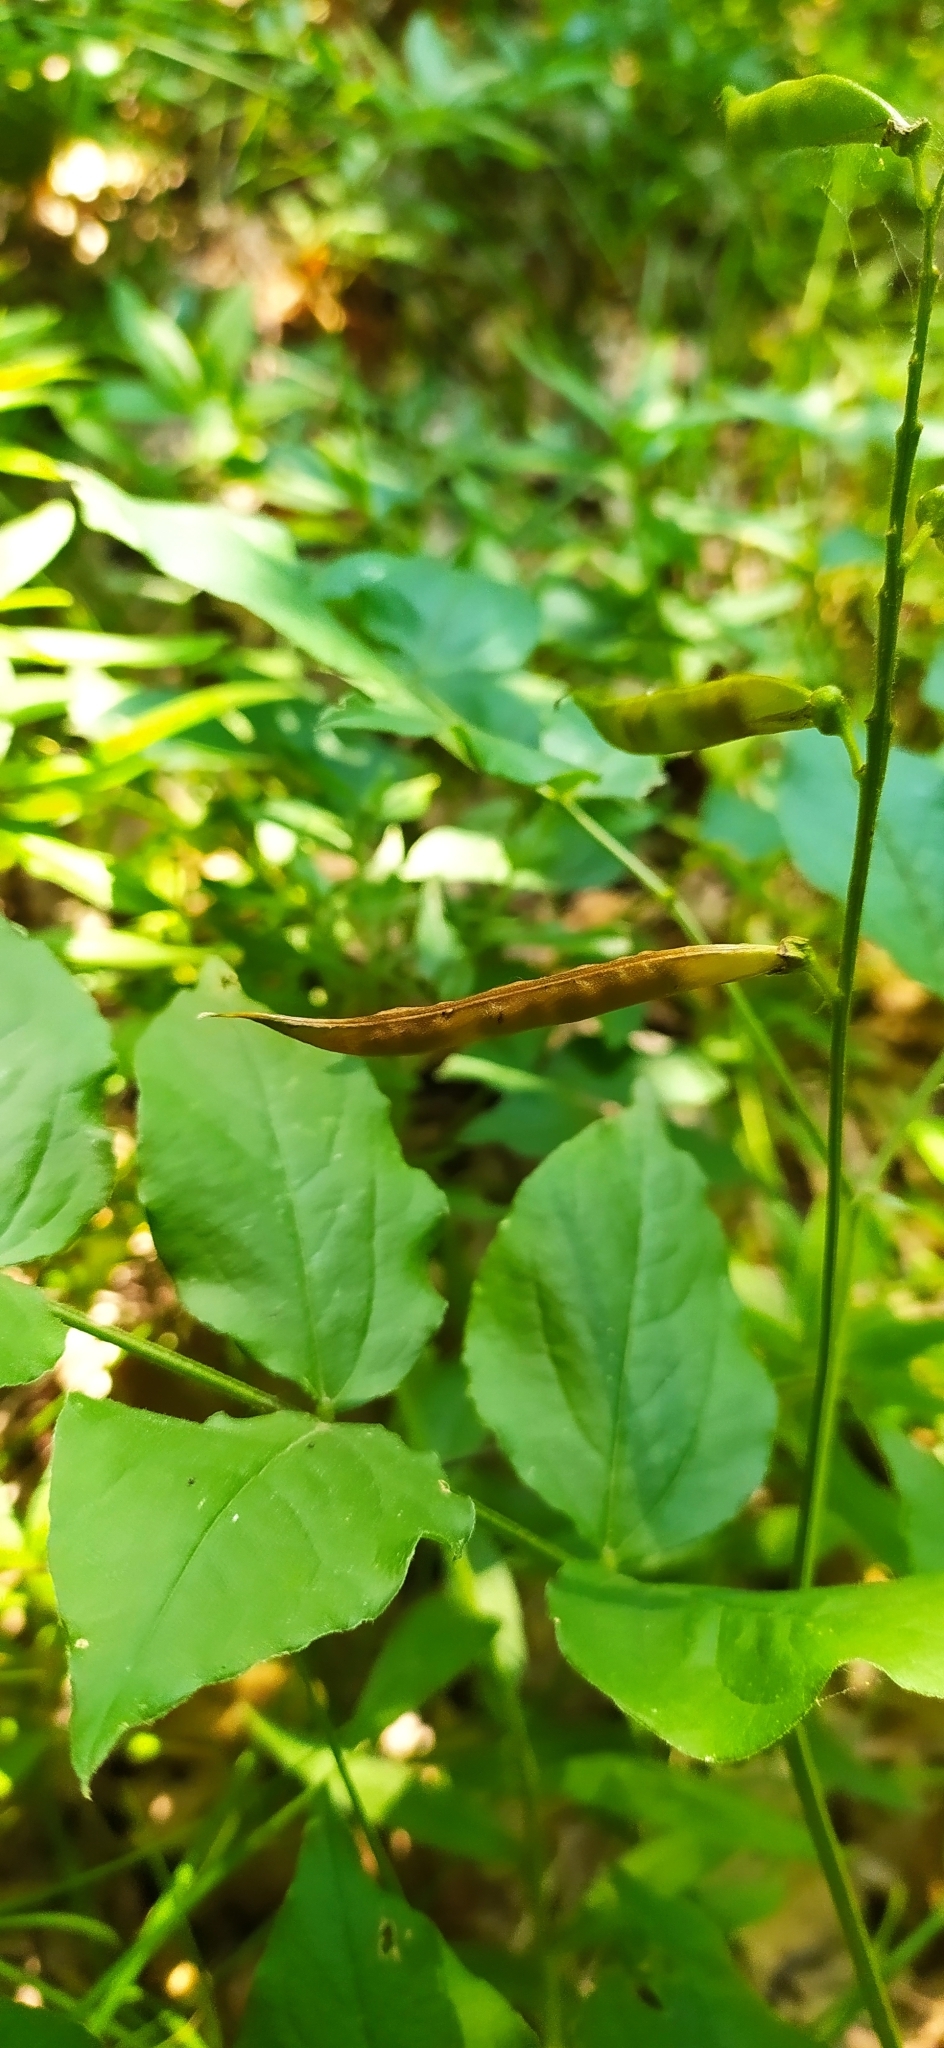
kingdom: Plantae
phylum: Tracheophyta
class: Magnoliopsida
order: Fabales
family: Fabaceae
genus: Lathyrus
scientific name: Lathyrus aureus
